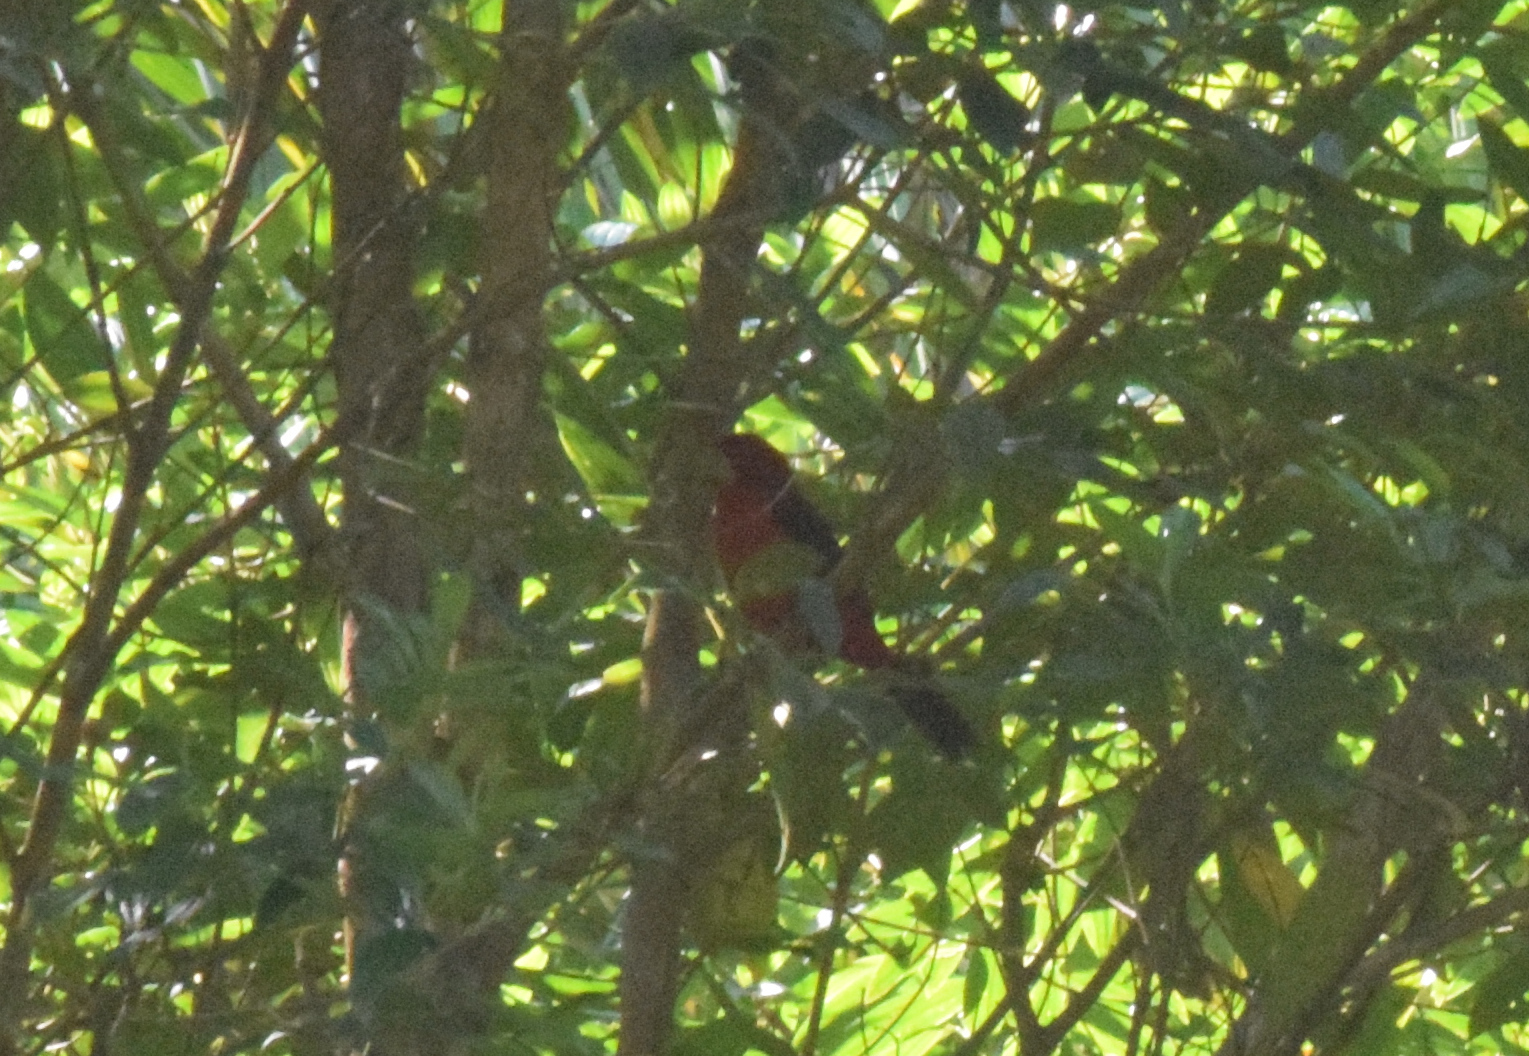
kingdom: Animalia
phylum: Chordata
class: Aves
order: Passeriformes
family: Thraupidae
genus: Ramphocelus
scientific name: Ramphocelus bresilia
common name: Brazilian tanager
